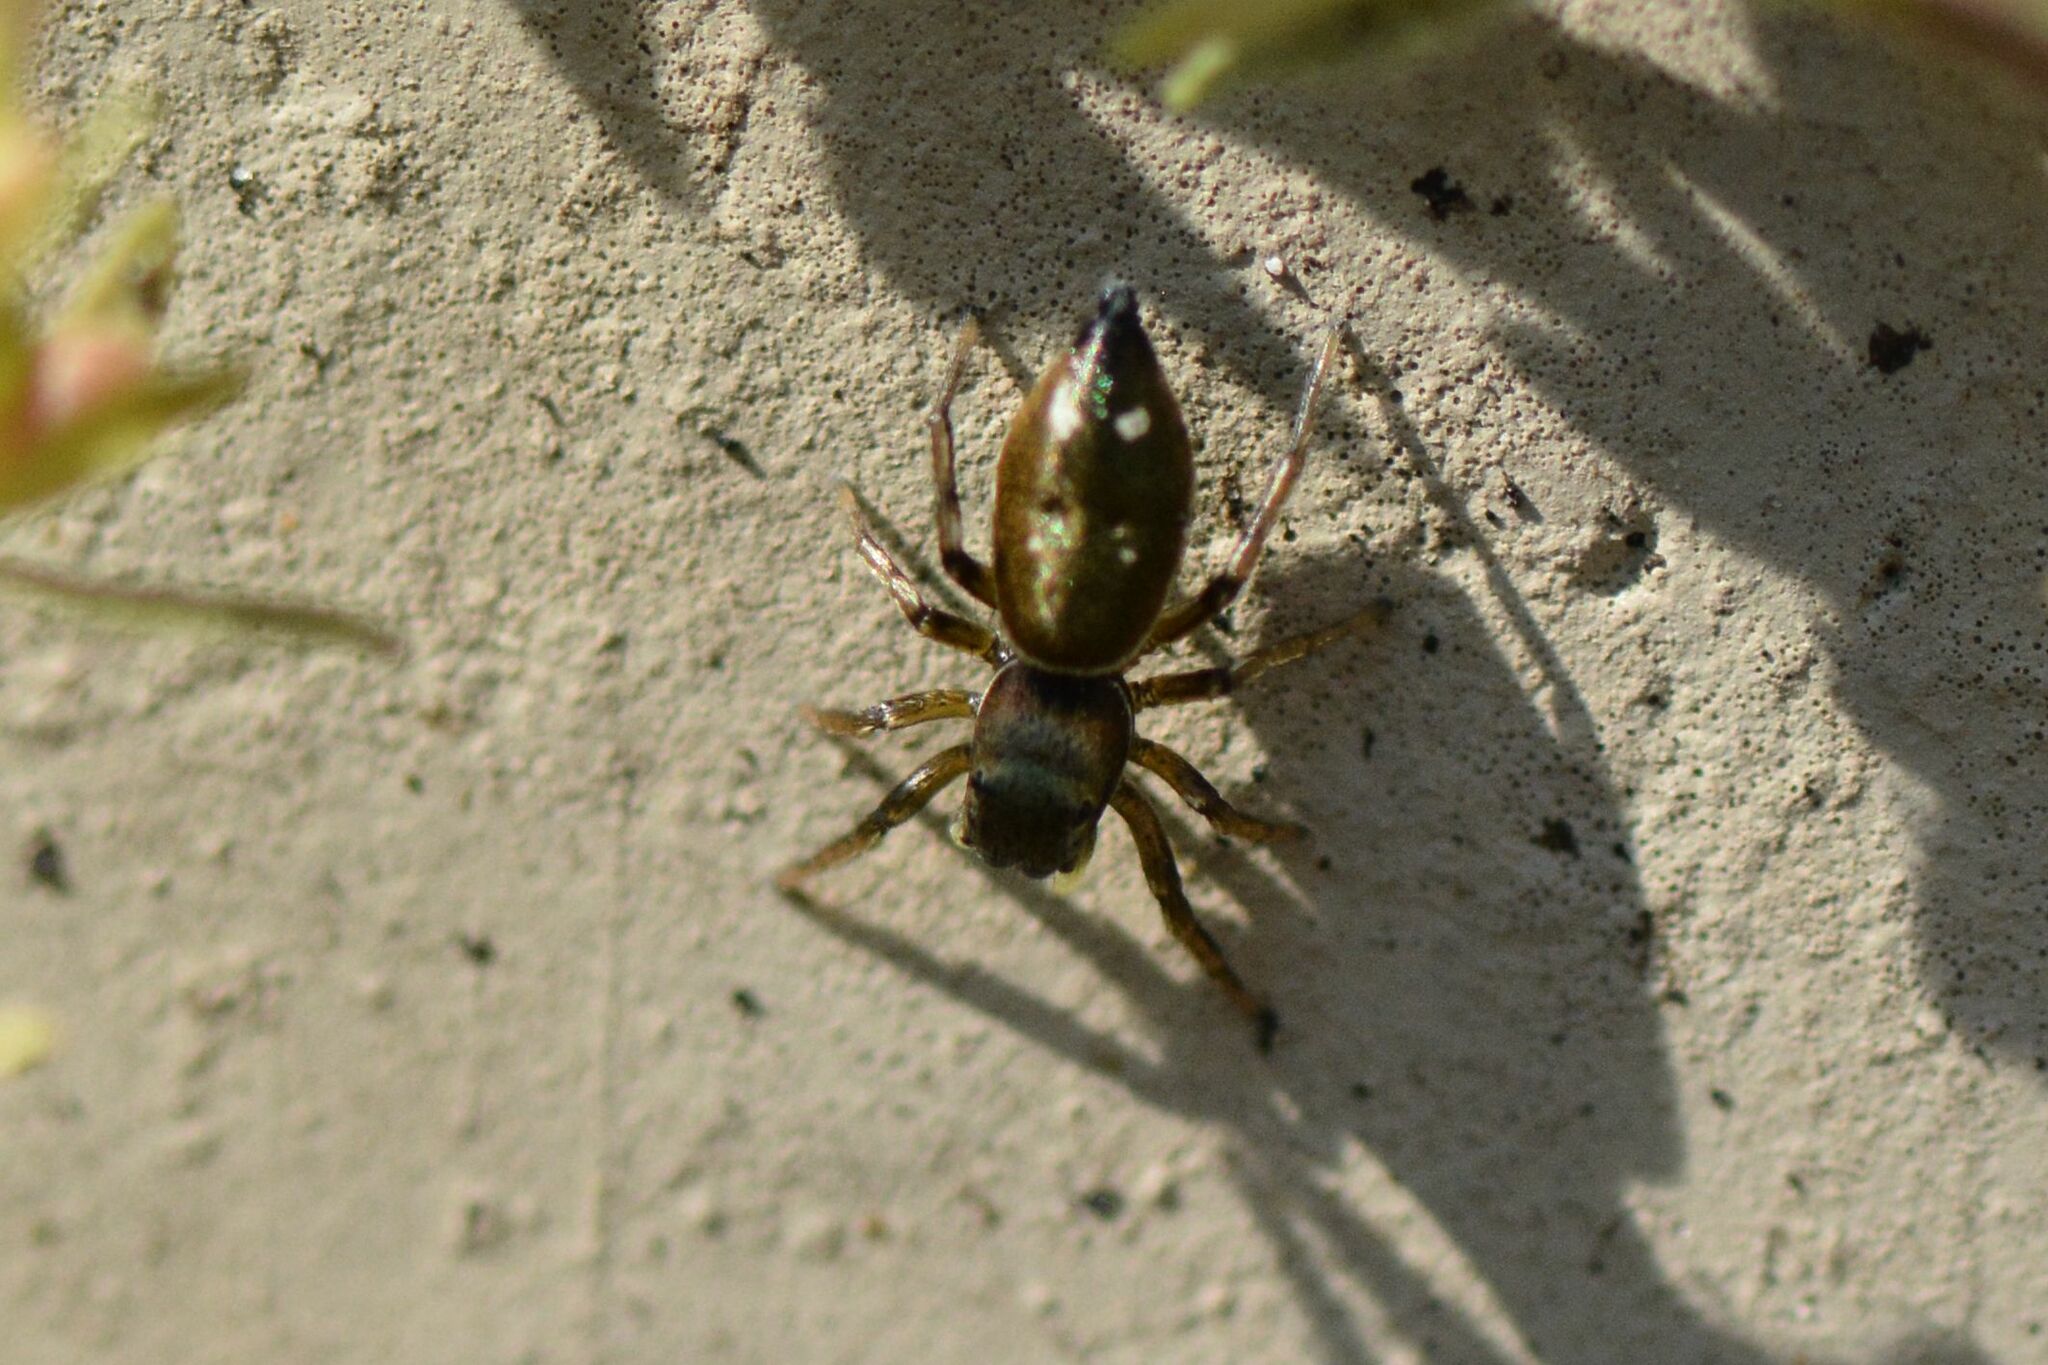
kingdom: Animalia
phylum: Arthropoda
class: Arachnida
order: Araneae
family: Salticidae
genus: Heliophanus
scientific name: Heliophanus aeneus
